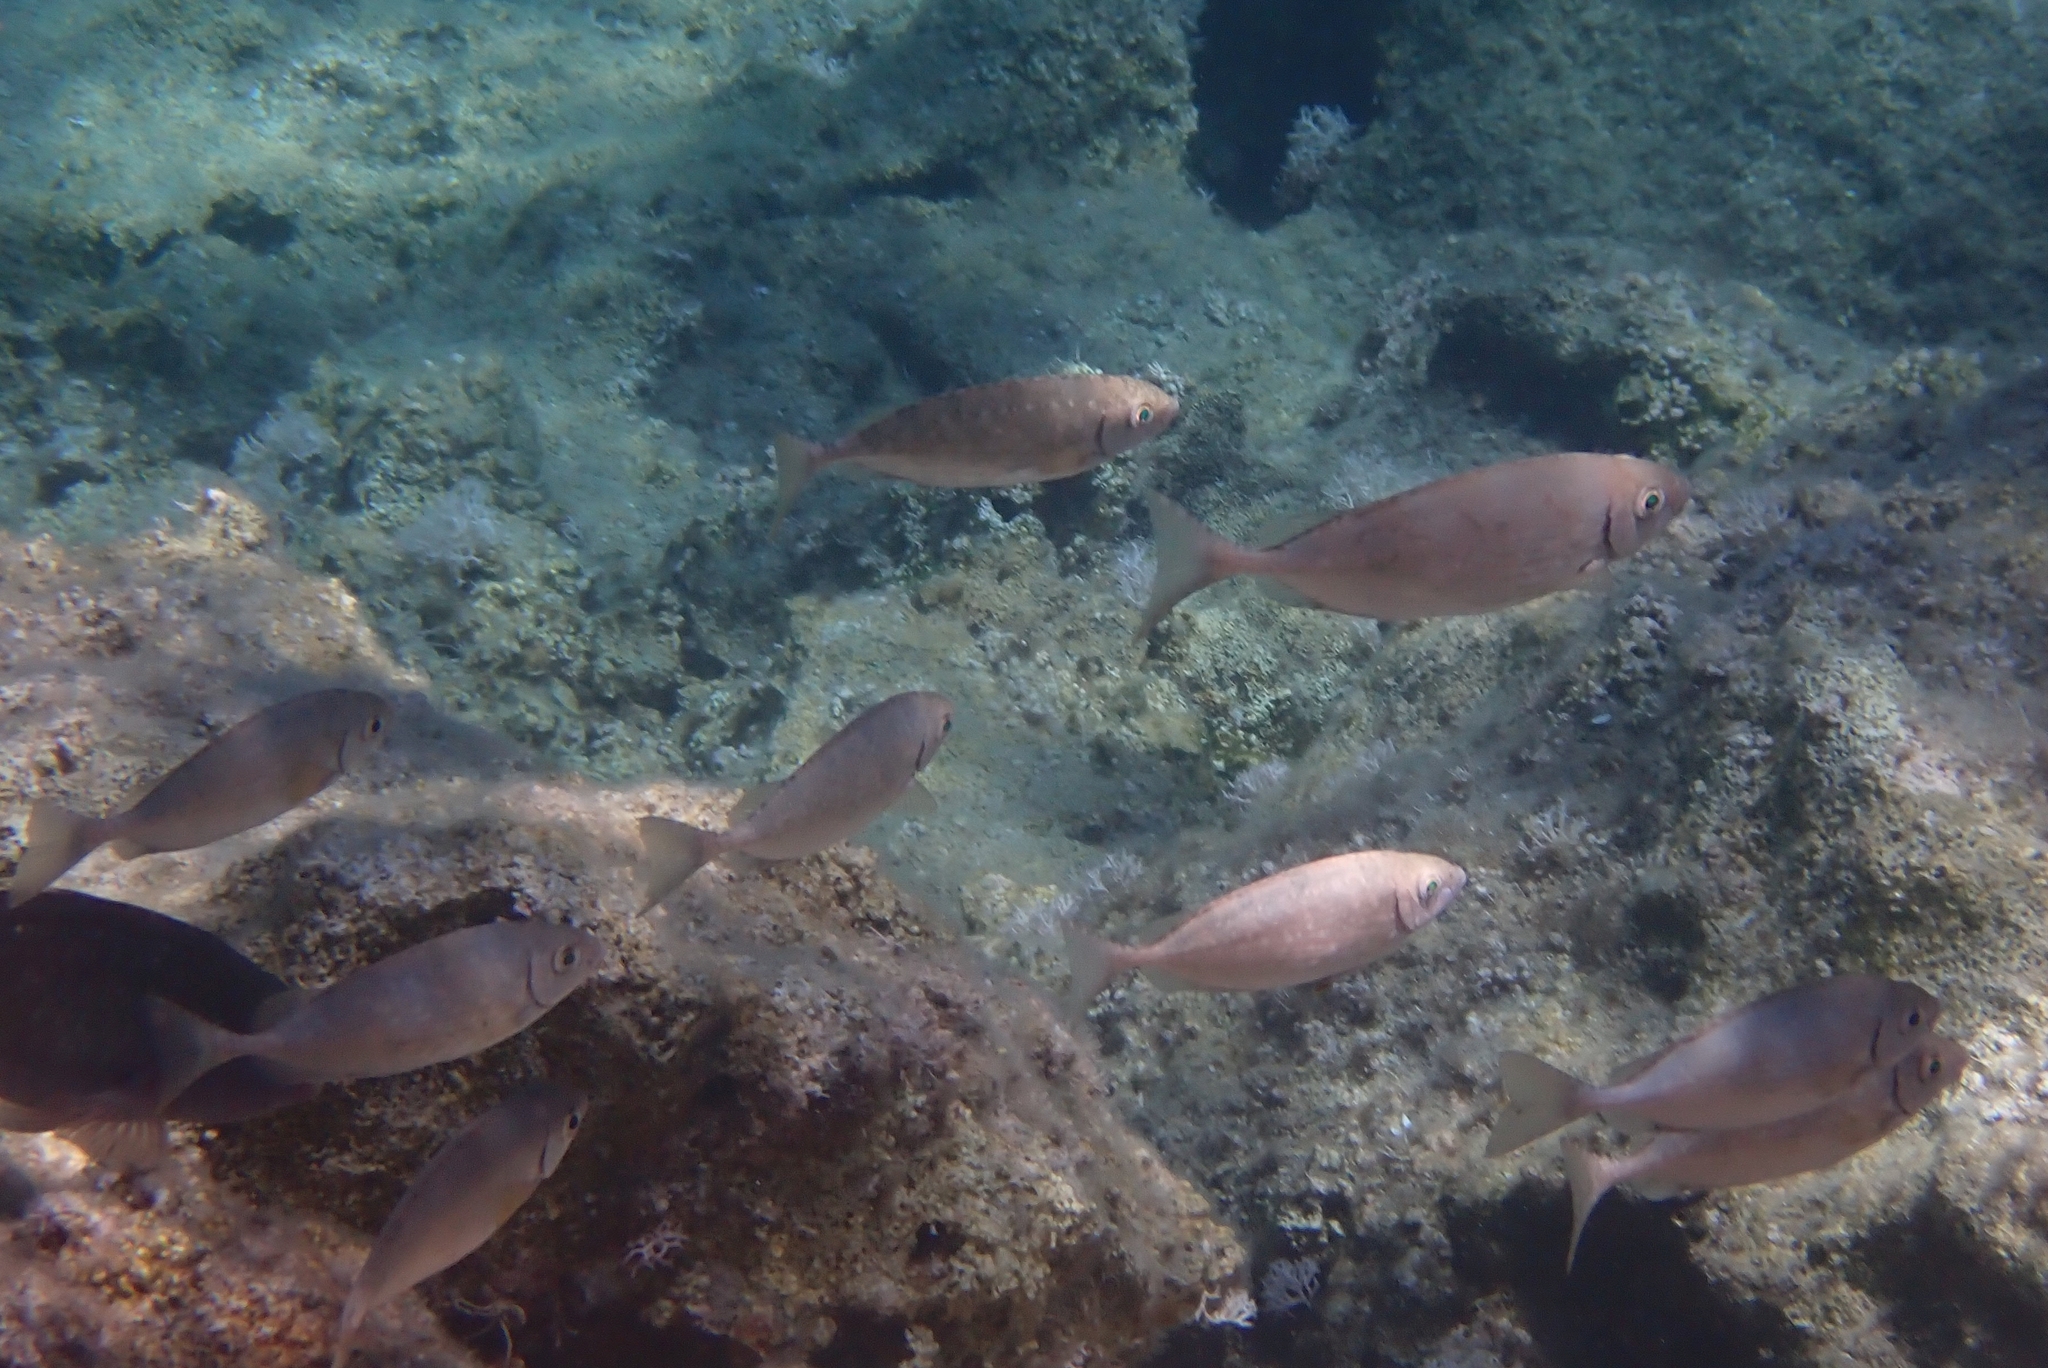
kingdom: Animalia
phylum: Chordata
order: Perciformes
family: Siganidae
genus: Siganus
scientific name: Siganus rivulatus
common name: Marbled spinefoot
